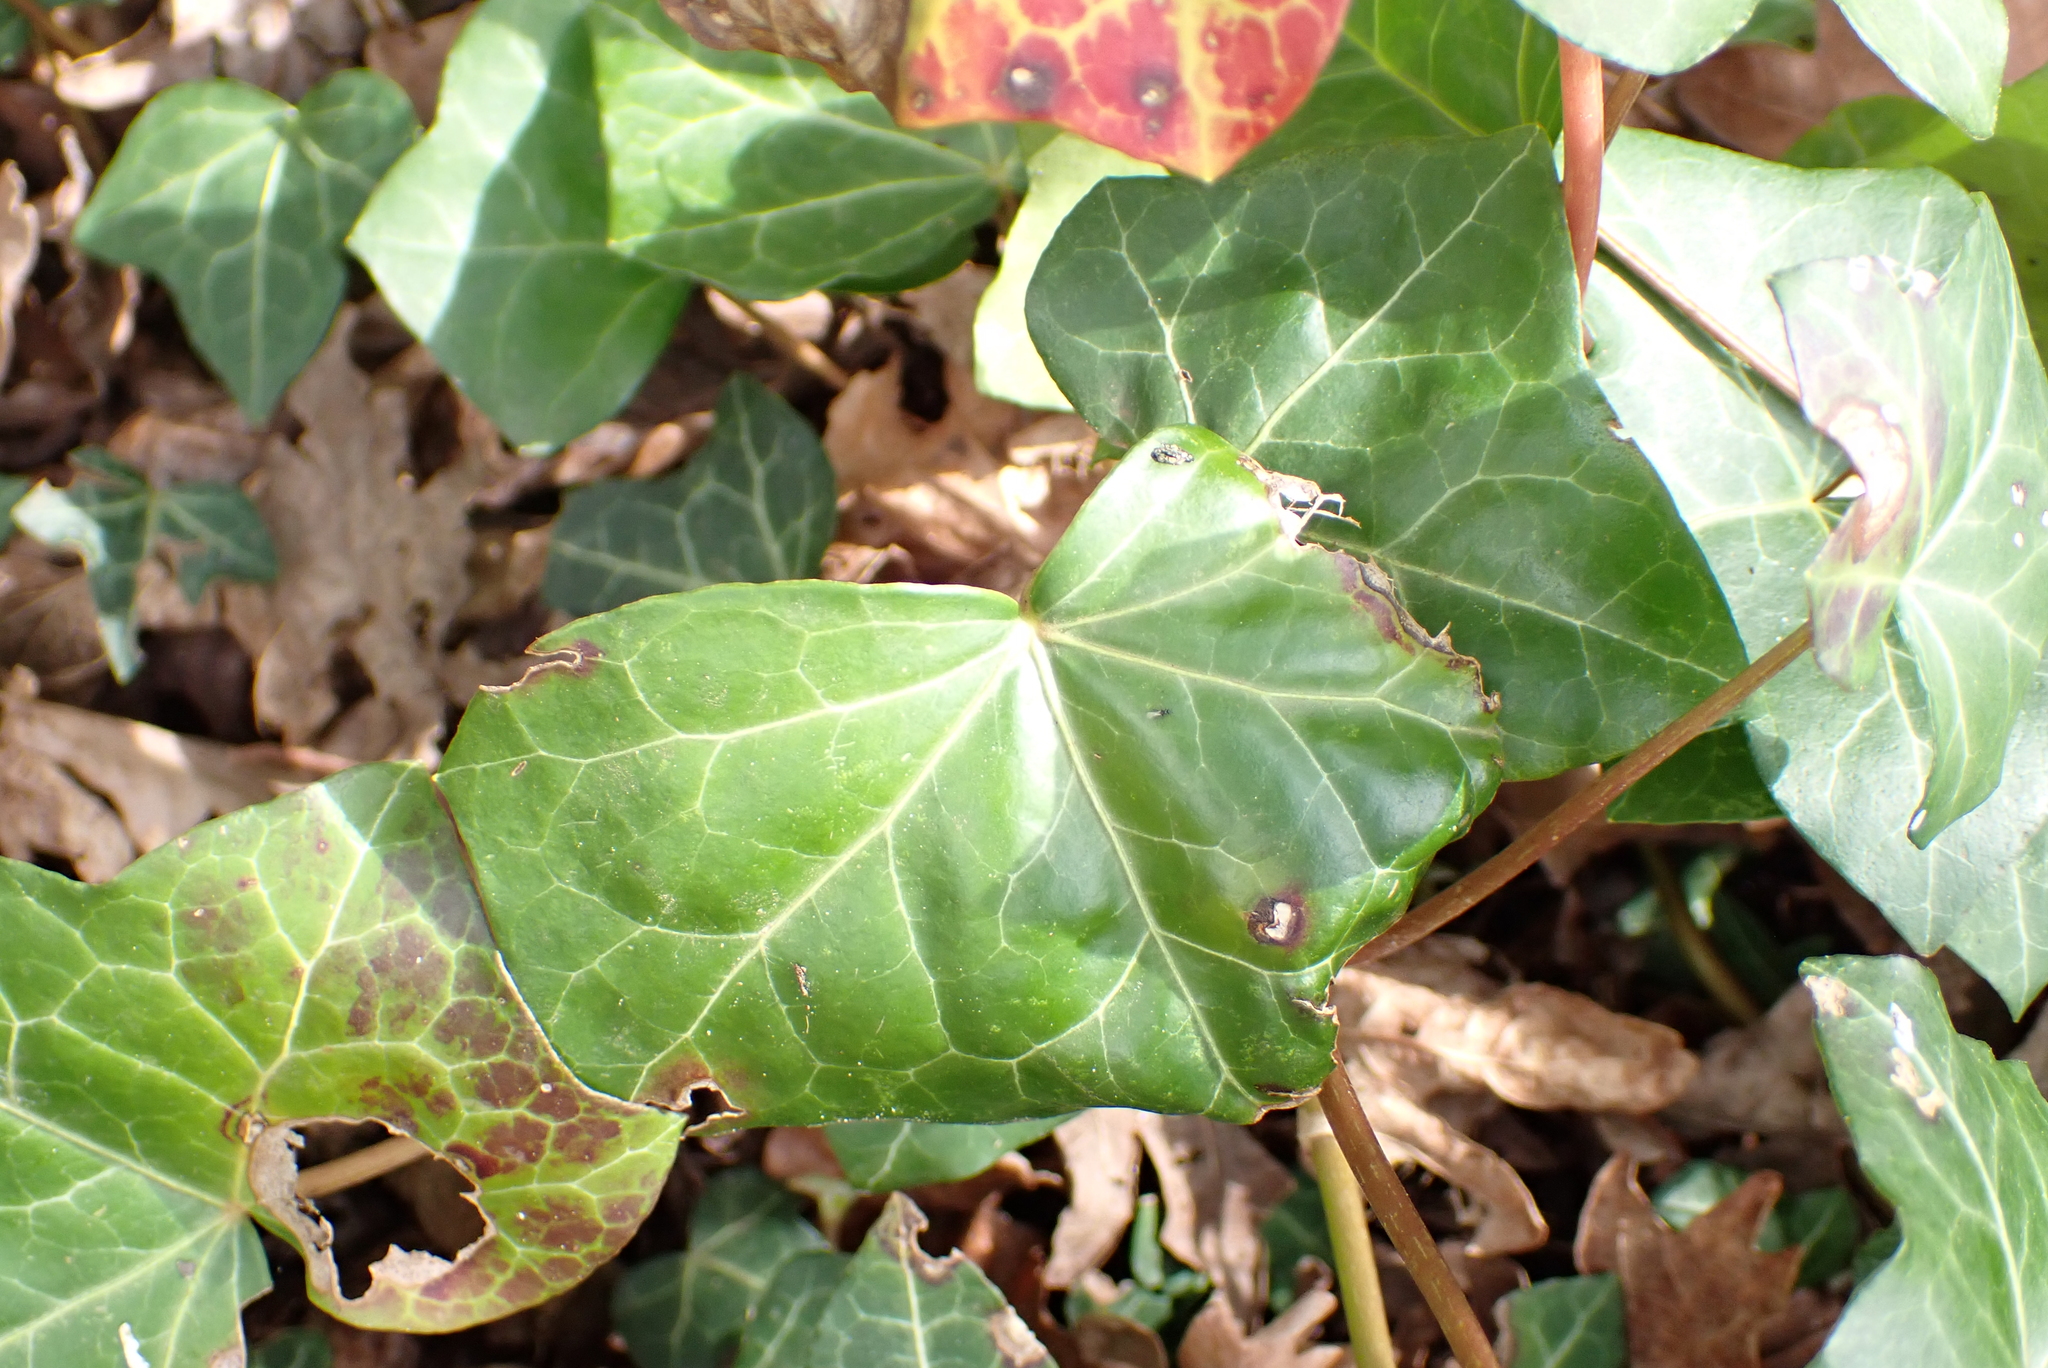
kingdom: Plantae
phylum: Tracheophyta
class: Magnoliopsida
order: Apiales
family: Araliaceae
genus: Hedera
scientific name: Hedera helix
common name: Ivy
